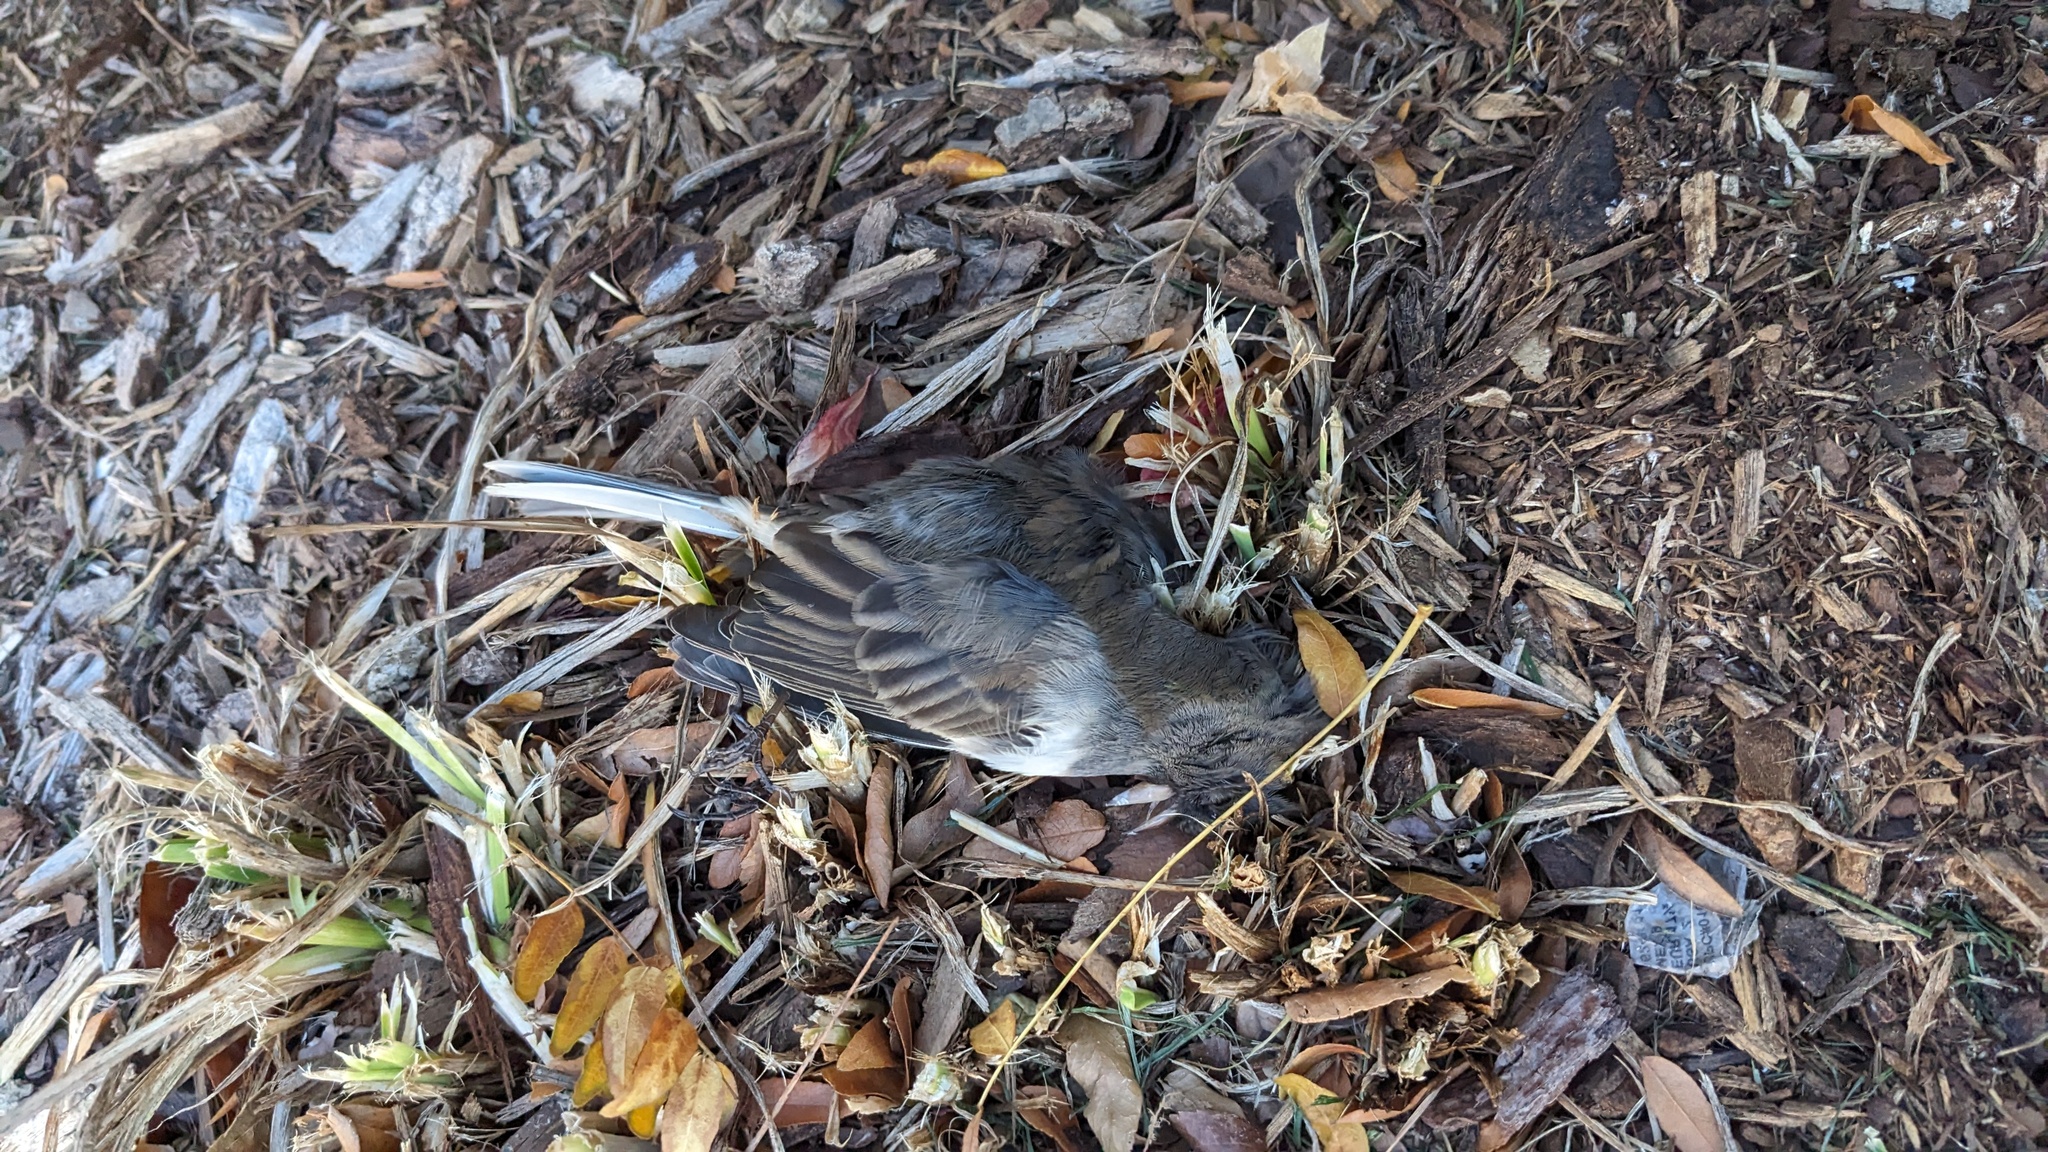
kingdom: Animalia
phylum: Chordata
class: Aves
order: Passeriformes
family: Passerellidae
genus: Junco
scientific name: Junco hyemalis
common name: Dark-eyed junco
